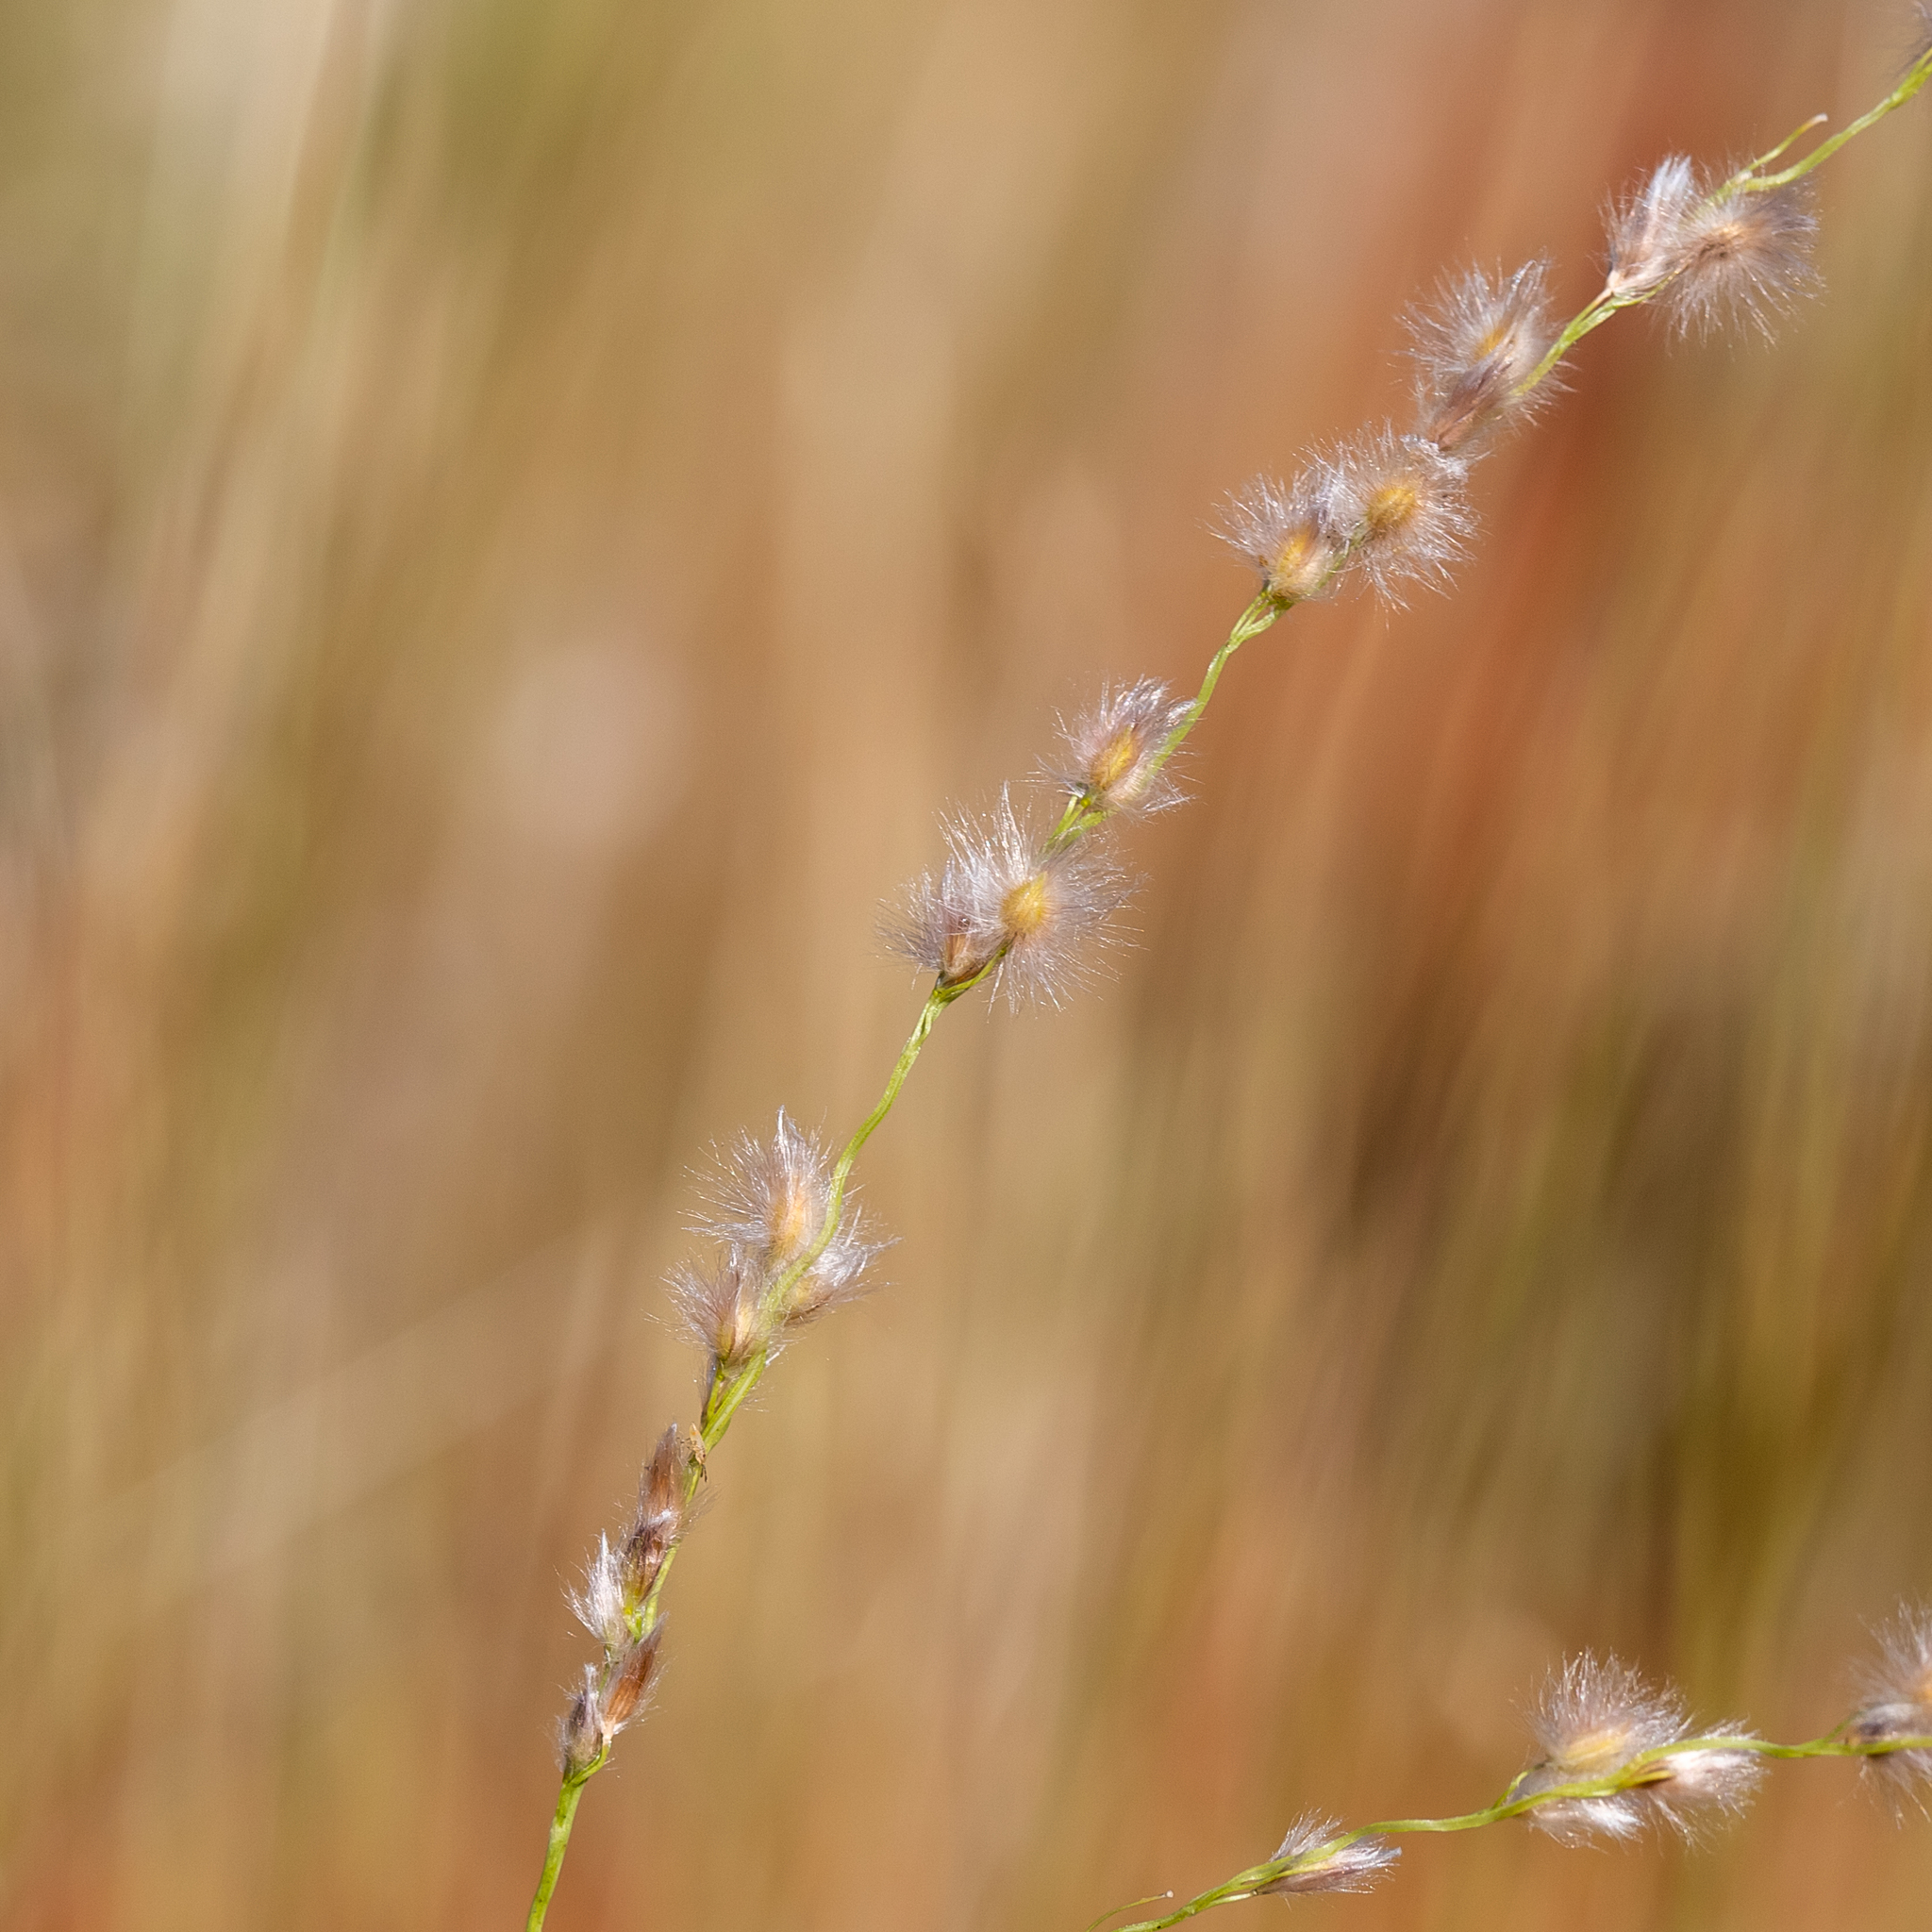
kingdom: Plantae
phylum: Tracheophyta
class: Liliopsida
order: Poales
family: Poaceae
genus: Digitaria
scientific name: Digitaria brownii
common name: Cotton grass
